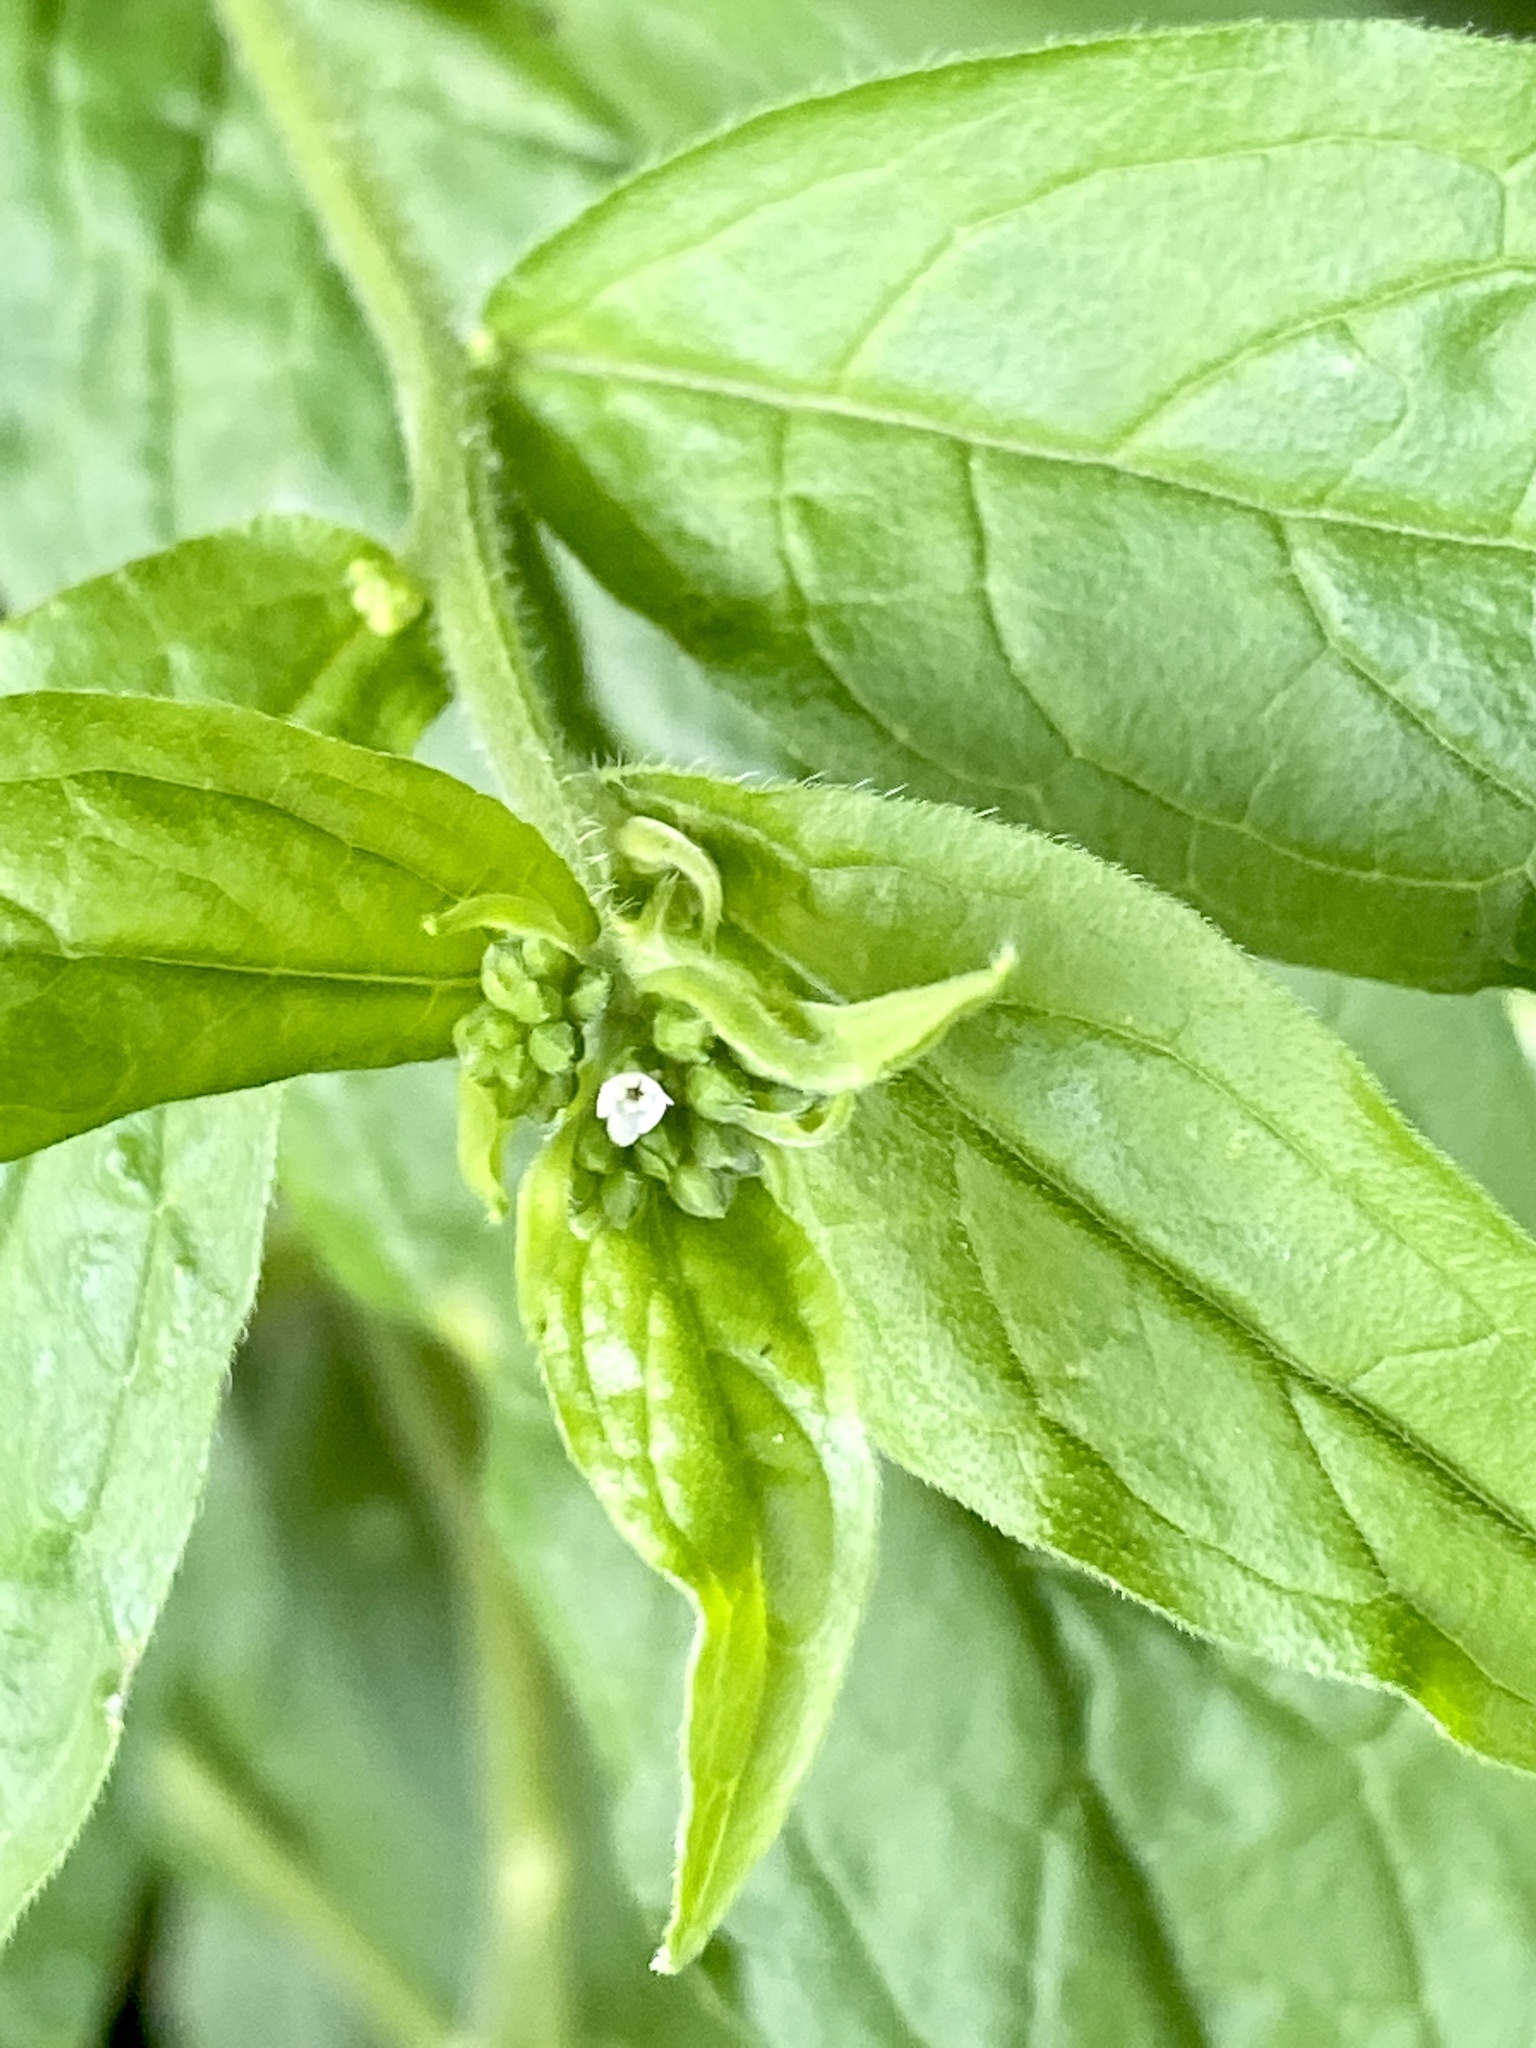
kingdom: Plantae
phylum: Tracheophyta
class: Magnoliopsida
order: Boraginales
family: Boraginaceae
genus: Hackelia
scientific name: Hackelia virginiana
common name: Beggar's-lice
